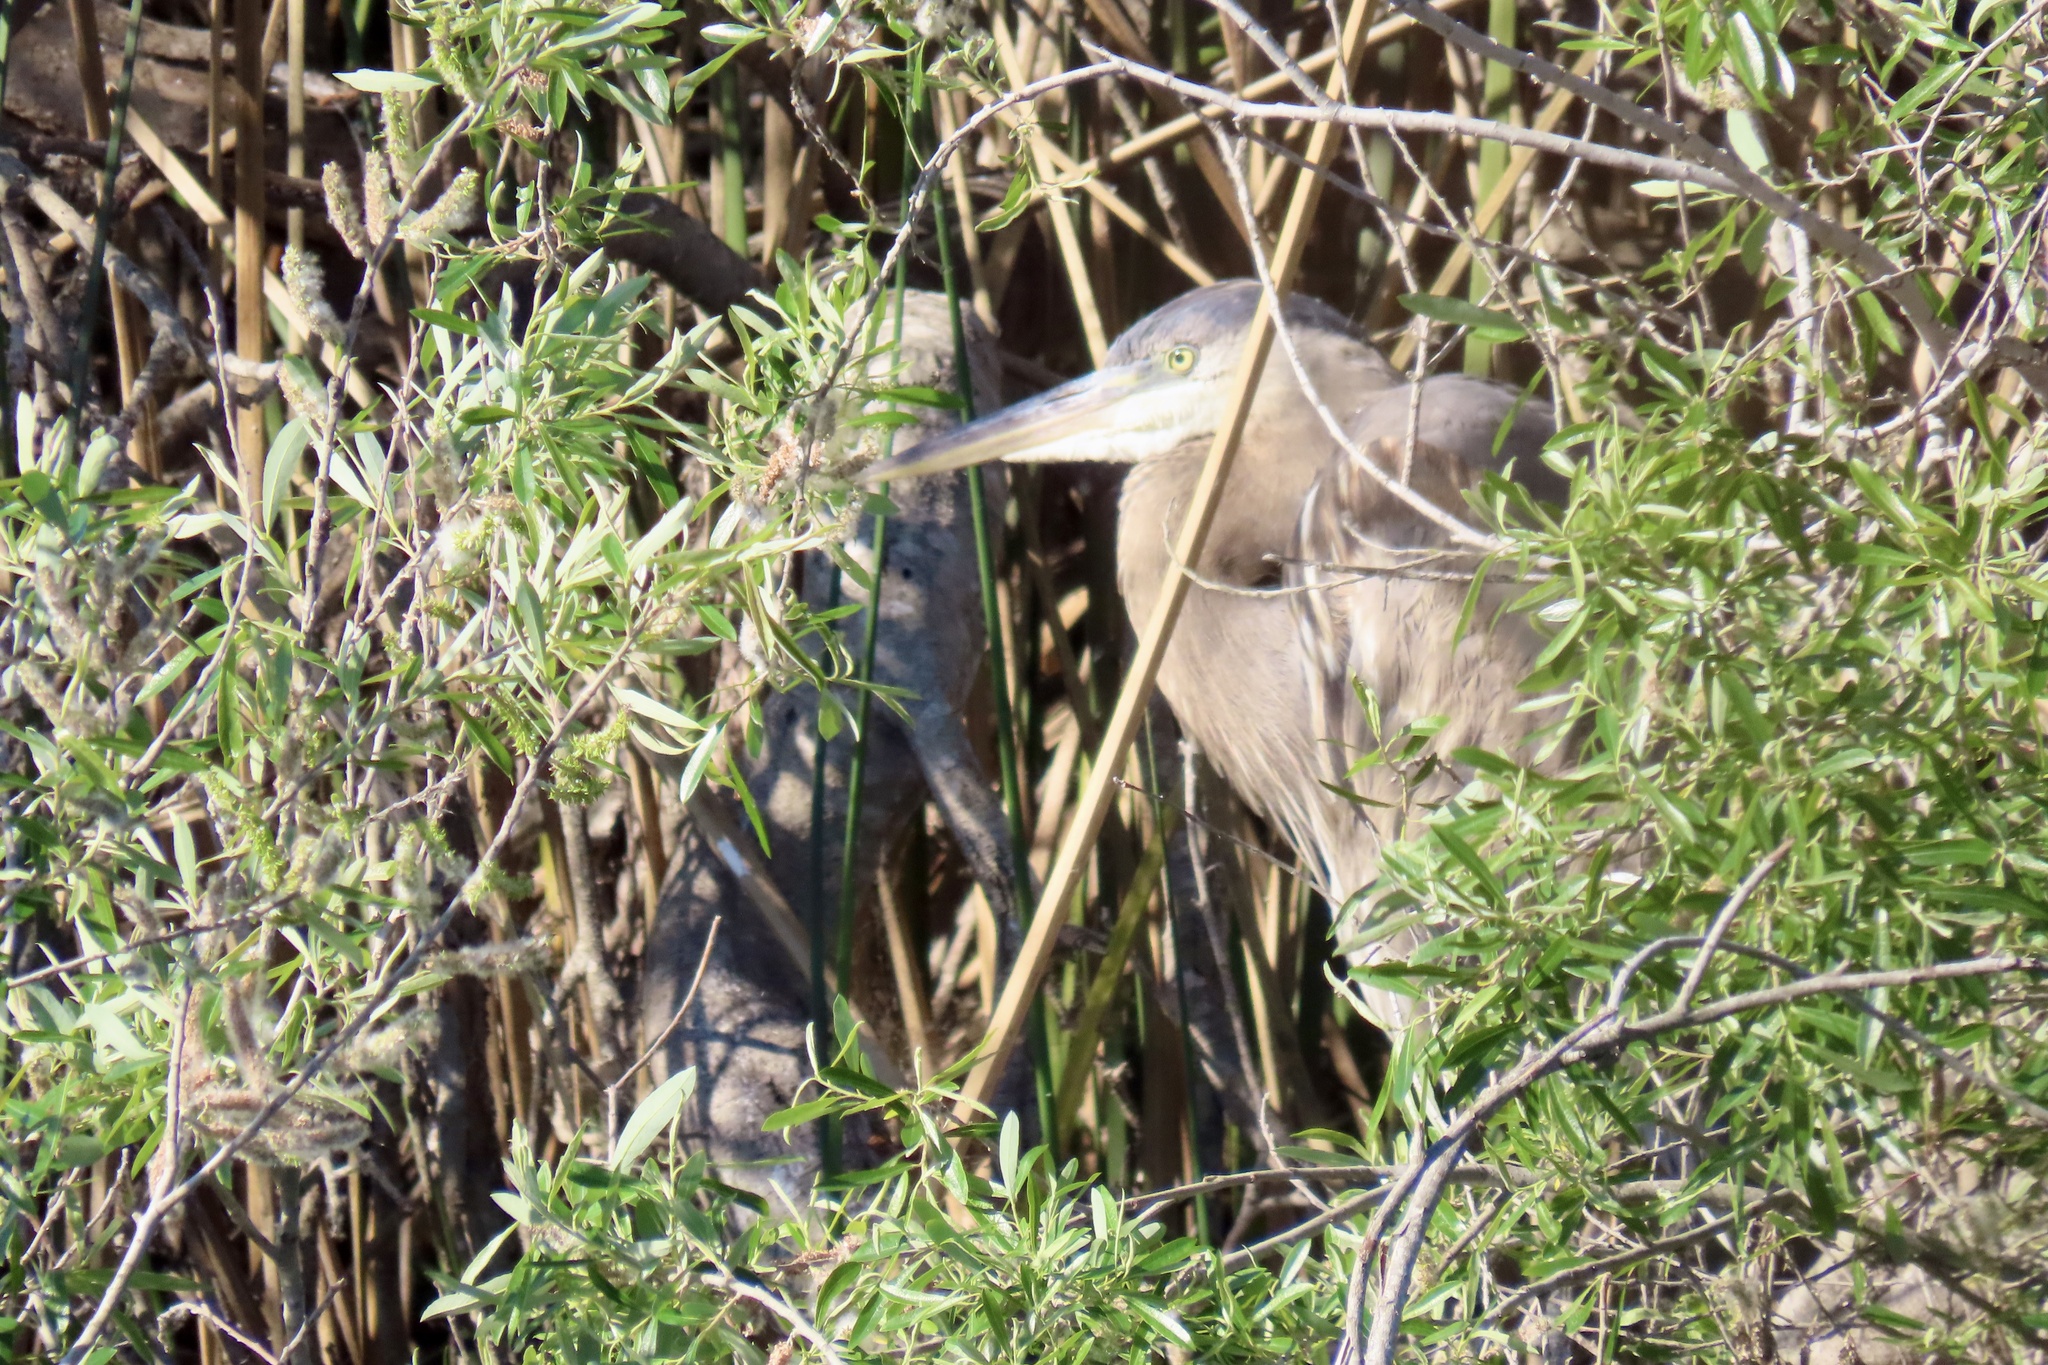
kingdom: Animalia
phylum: Chordata
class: Aves
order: Pelecaniformes
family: Ardeidae
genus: Ardea
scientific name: Ardea herodias
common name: Great blue heron
